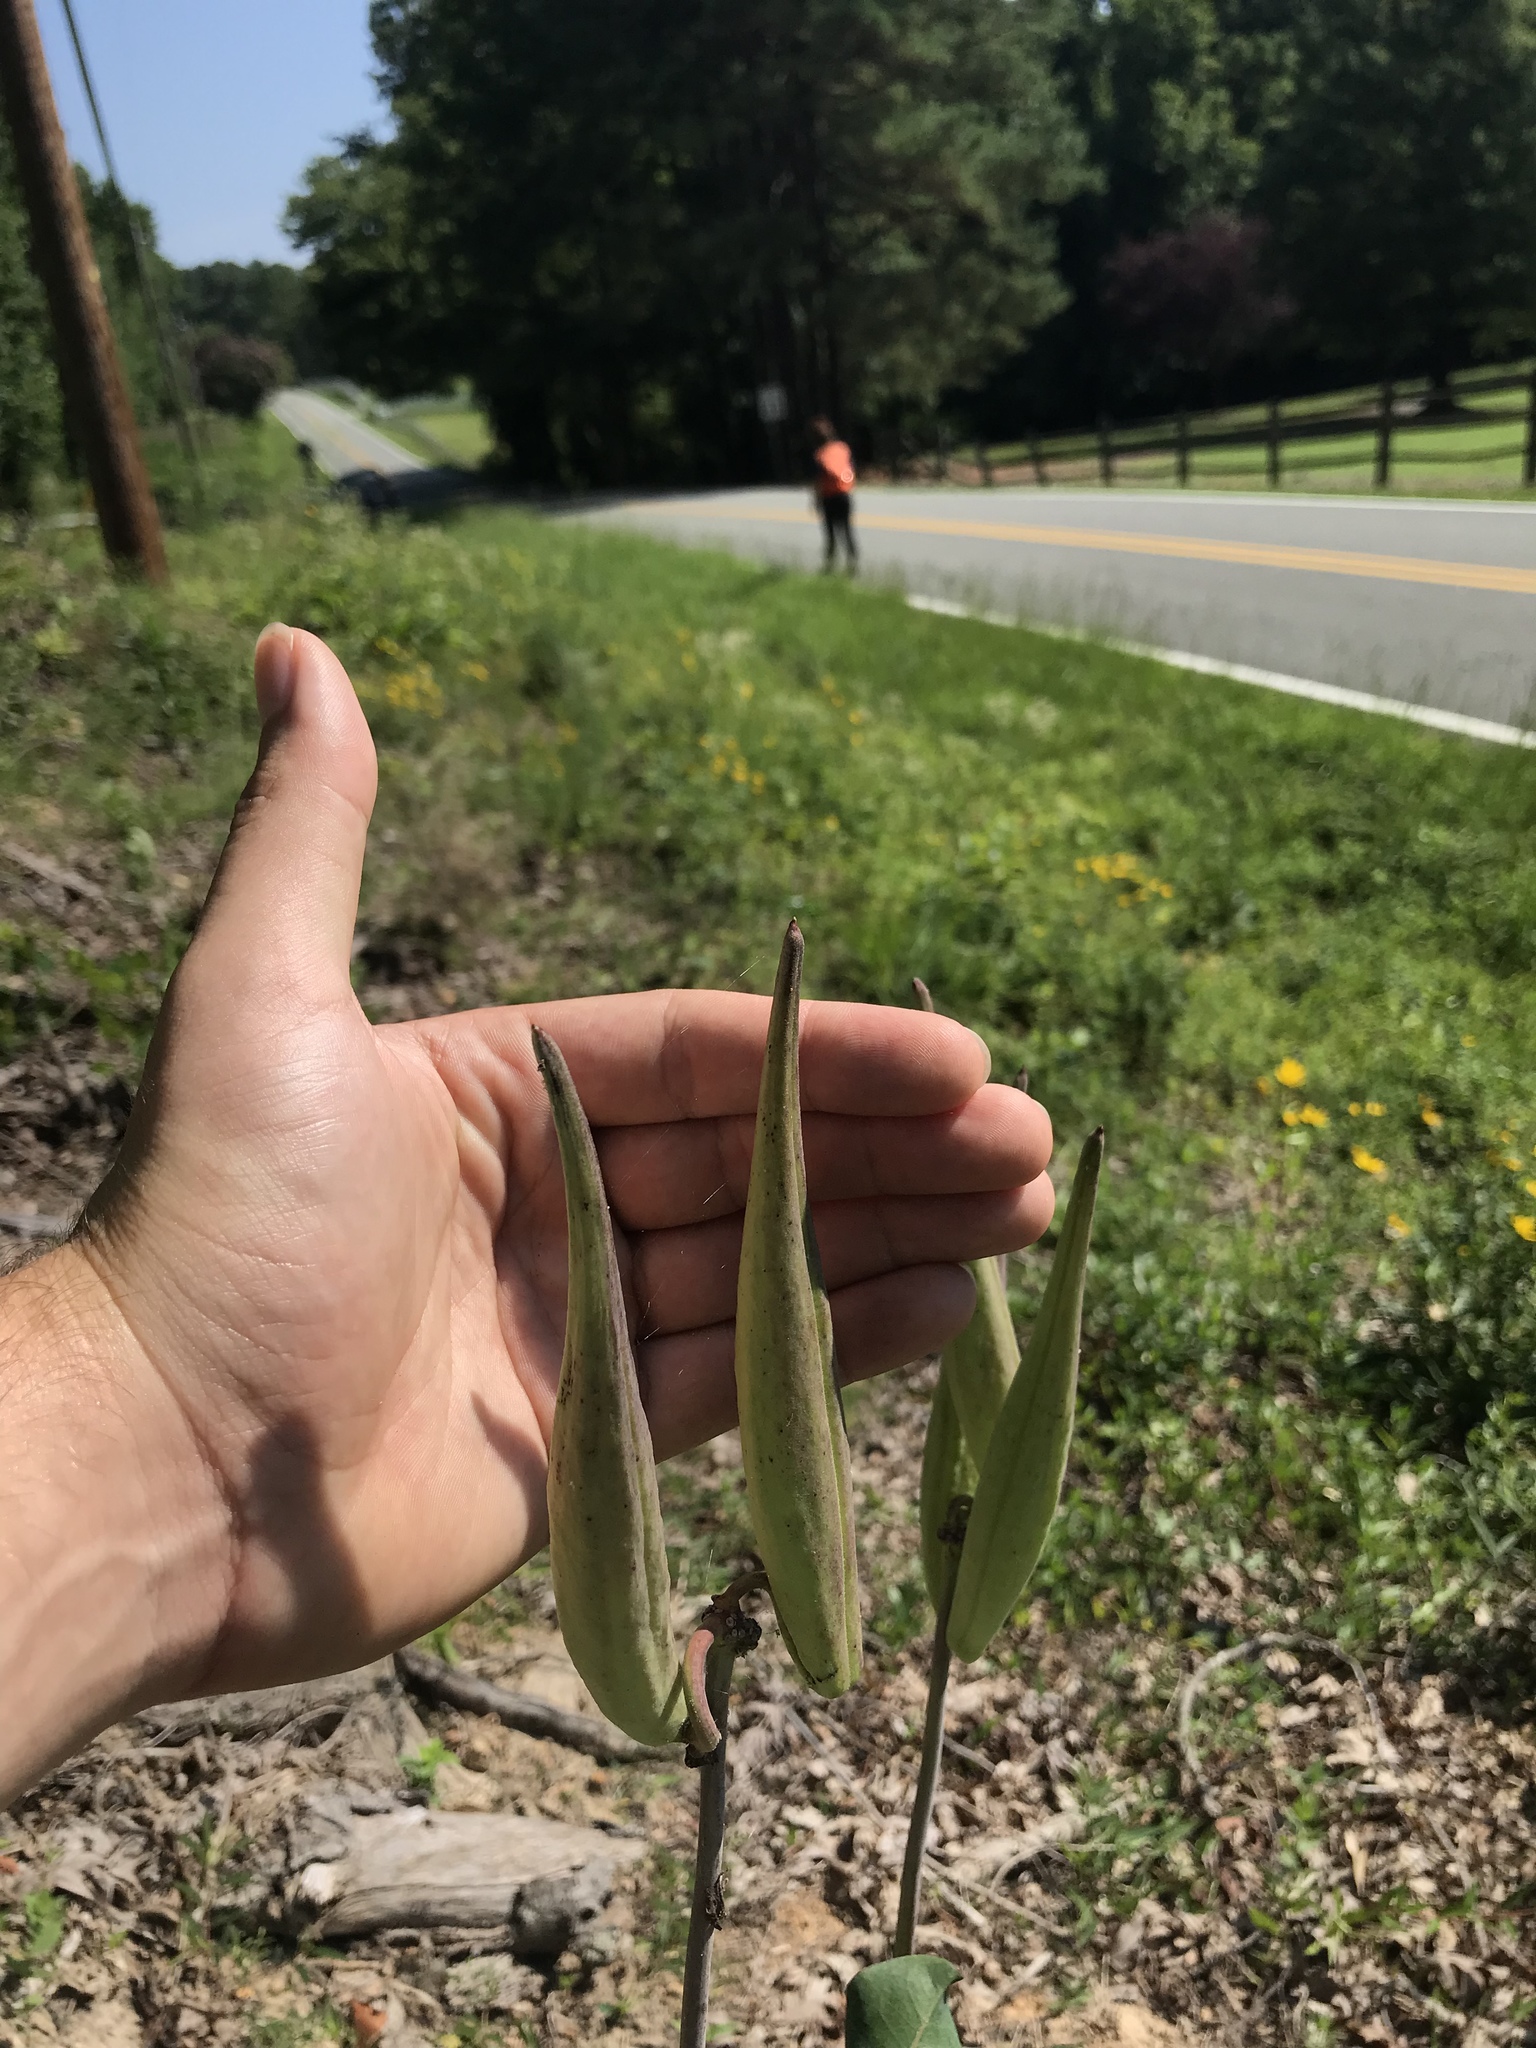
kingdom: Plantae
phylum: Tracheophyta
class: Magnoliopsida
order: Gentianales
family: Apocynaceae
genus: Asclepias
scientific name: Asclepias amplexicaulis
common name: Blunt-leaf milkweed
